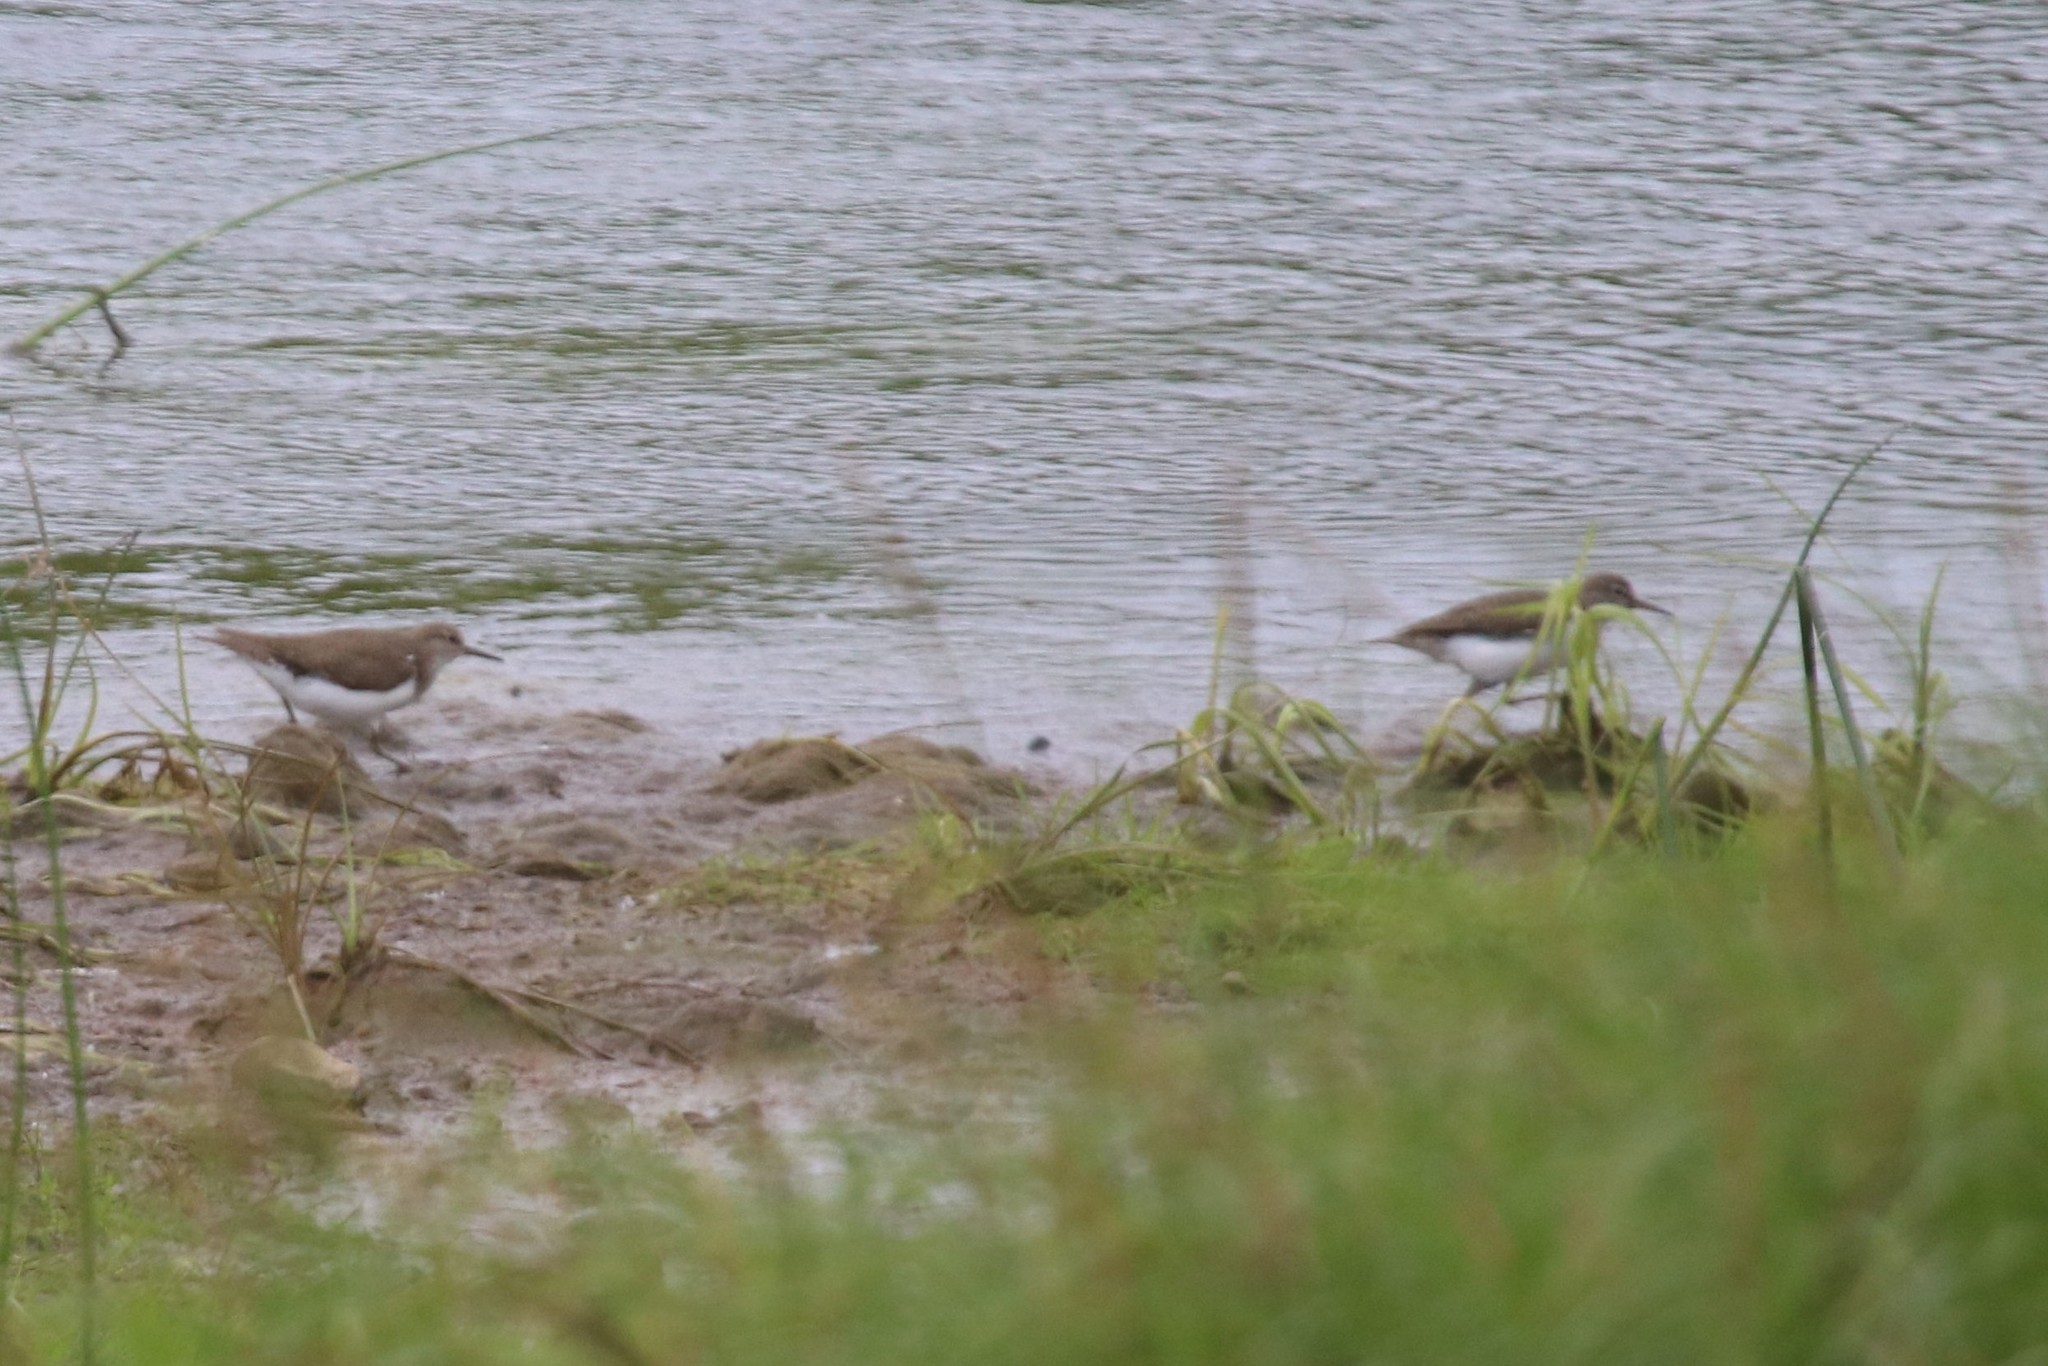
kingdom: Animalia
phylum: Chordata
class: Aves
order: Charadriiformes
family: Scolopacidae
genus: Actitis
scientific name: Actitis hypoleucos
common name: Common sandpiper
